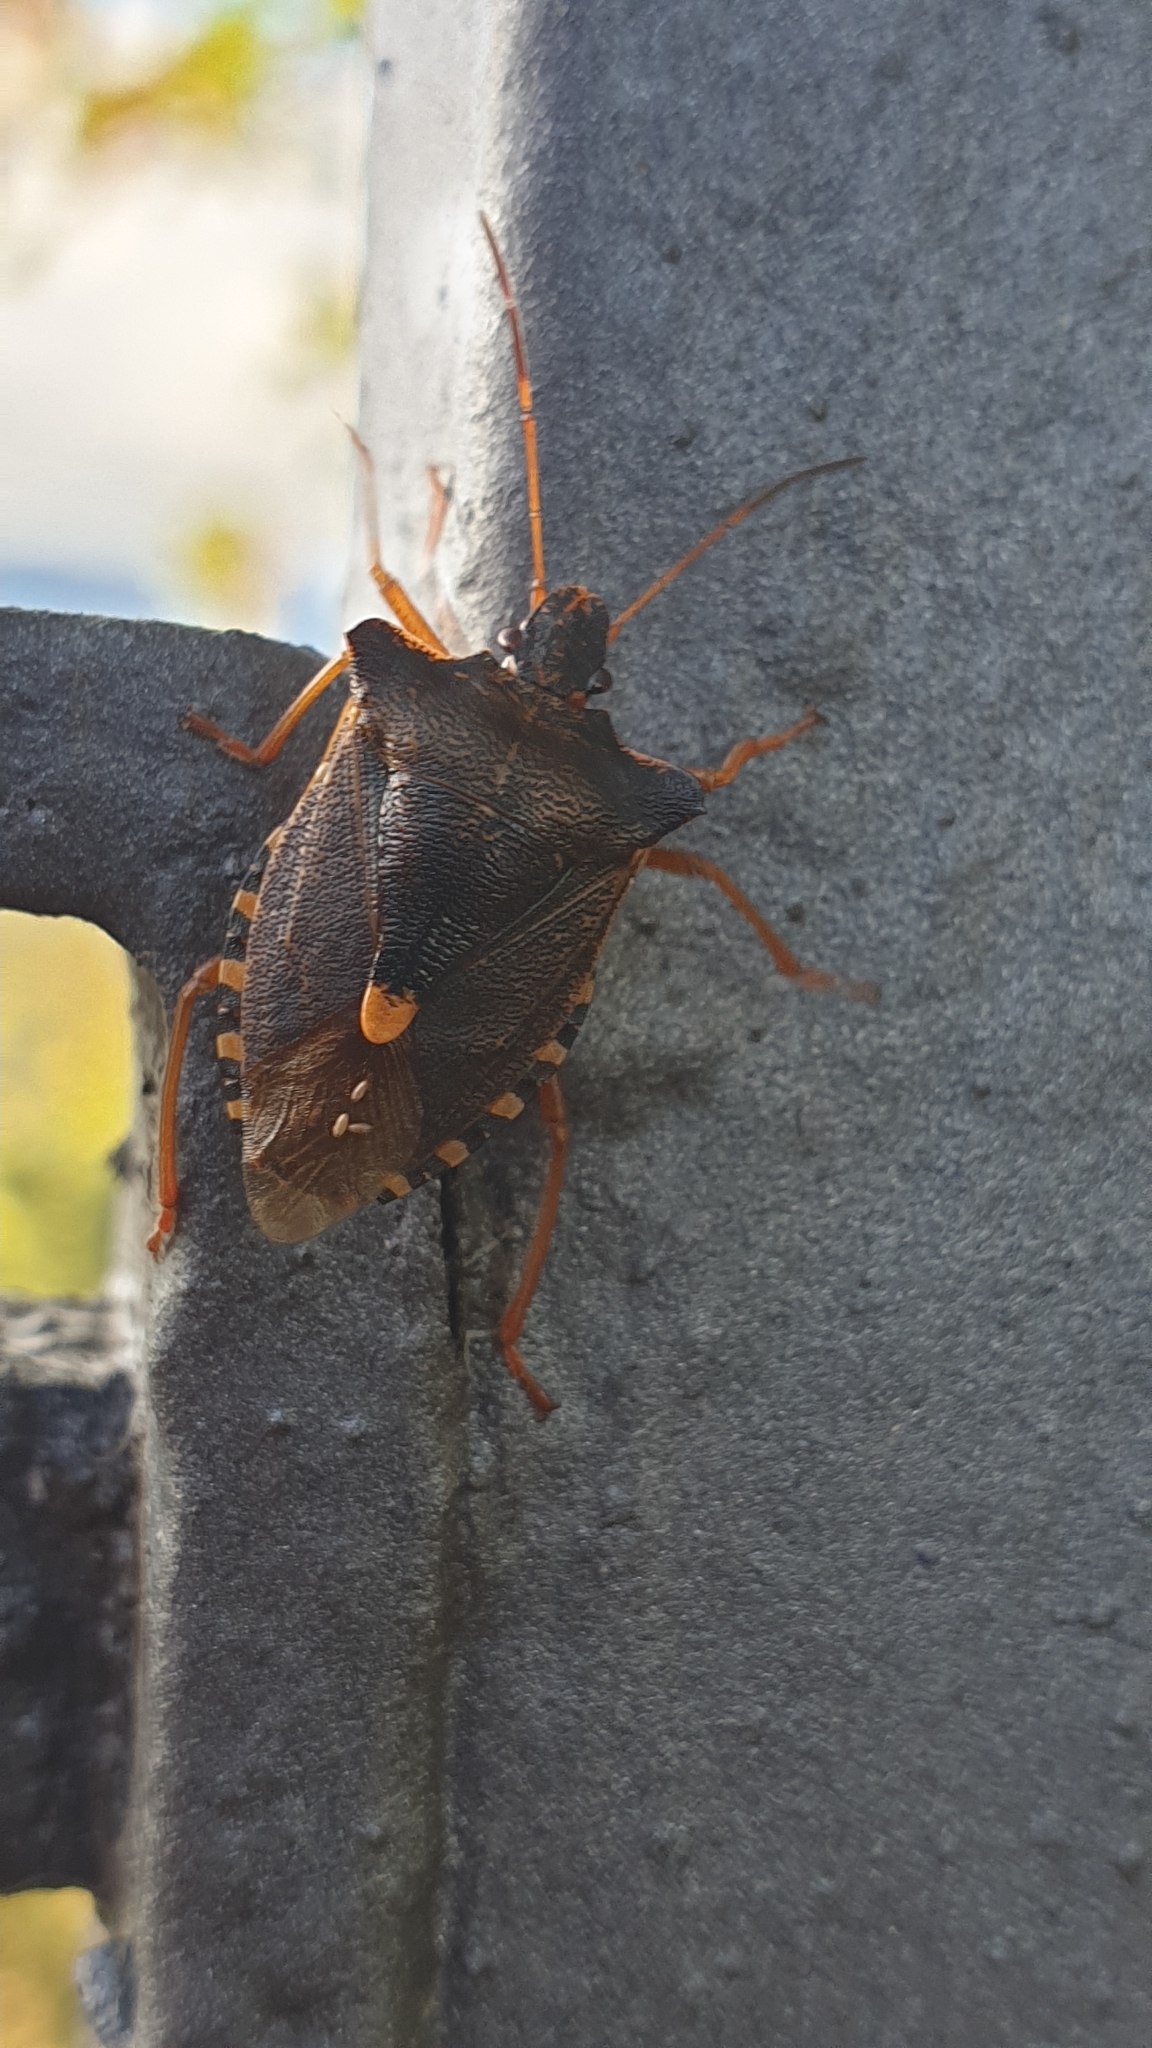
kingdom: Animalia
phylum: Arthropoda
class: Insecta
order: Hemiptera
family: Pentatomidae
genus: Pentatoma
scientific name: Pentatoma rufipes
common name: Forest bug
